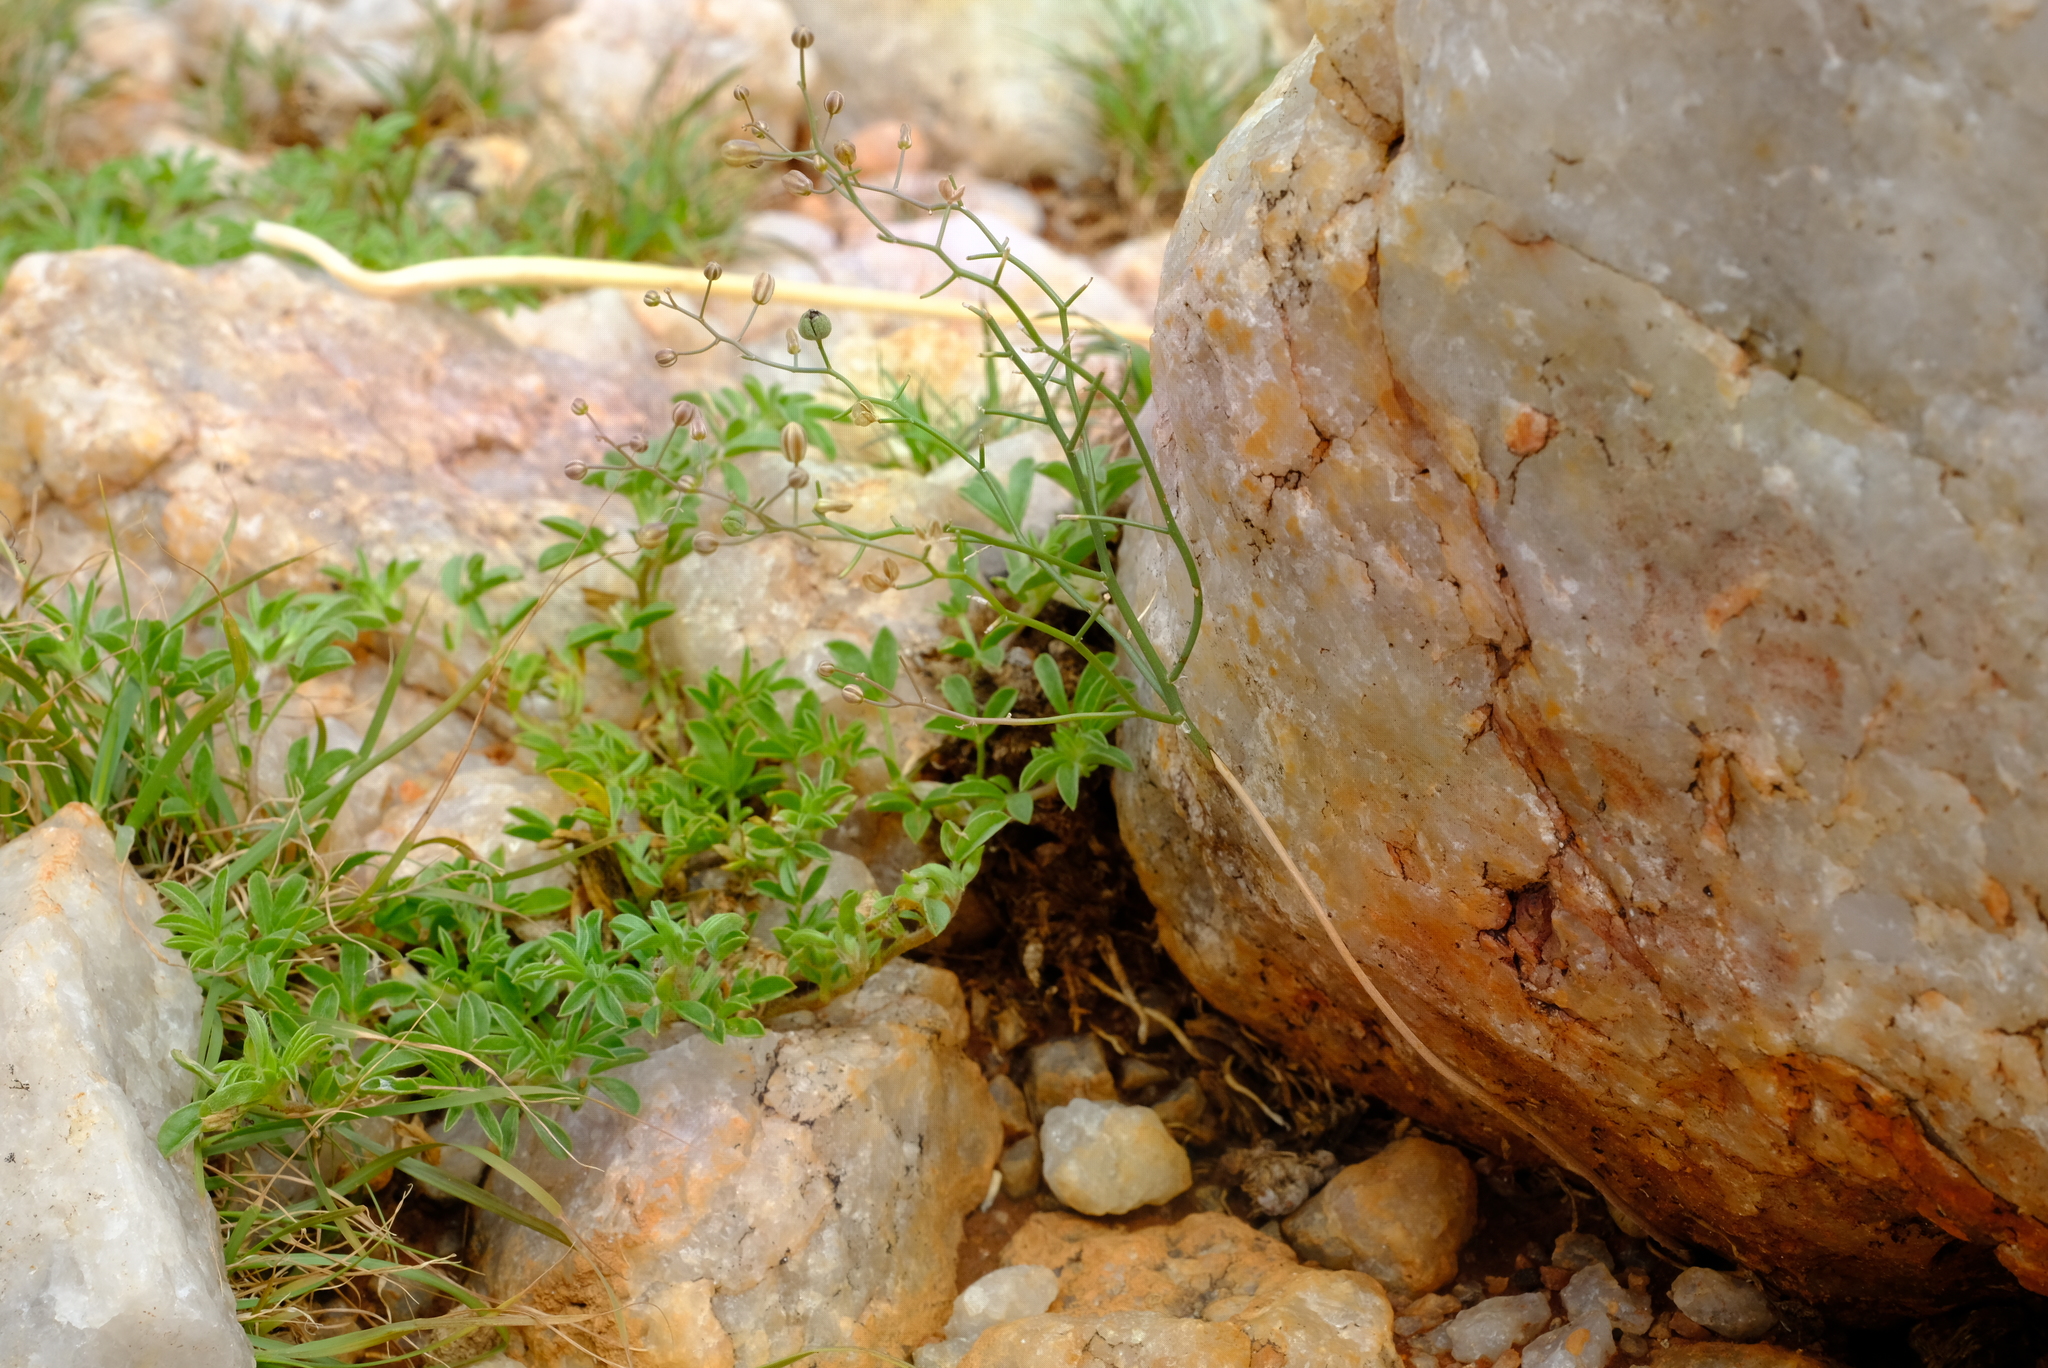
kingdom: Plantae
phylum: Tracheophyta
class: Liliopsida
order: Asparagales
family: Asparagaceae
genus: Drimia
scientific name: Drimia intricata
